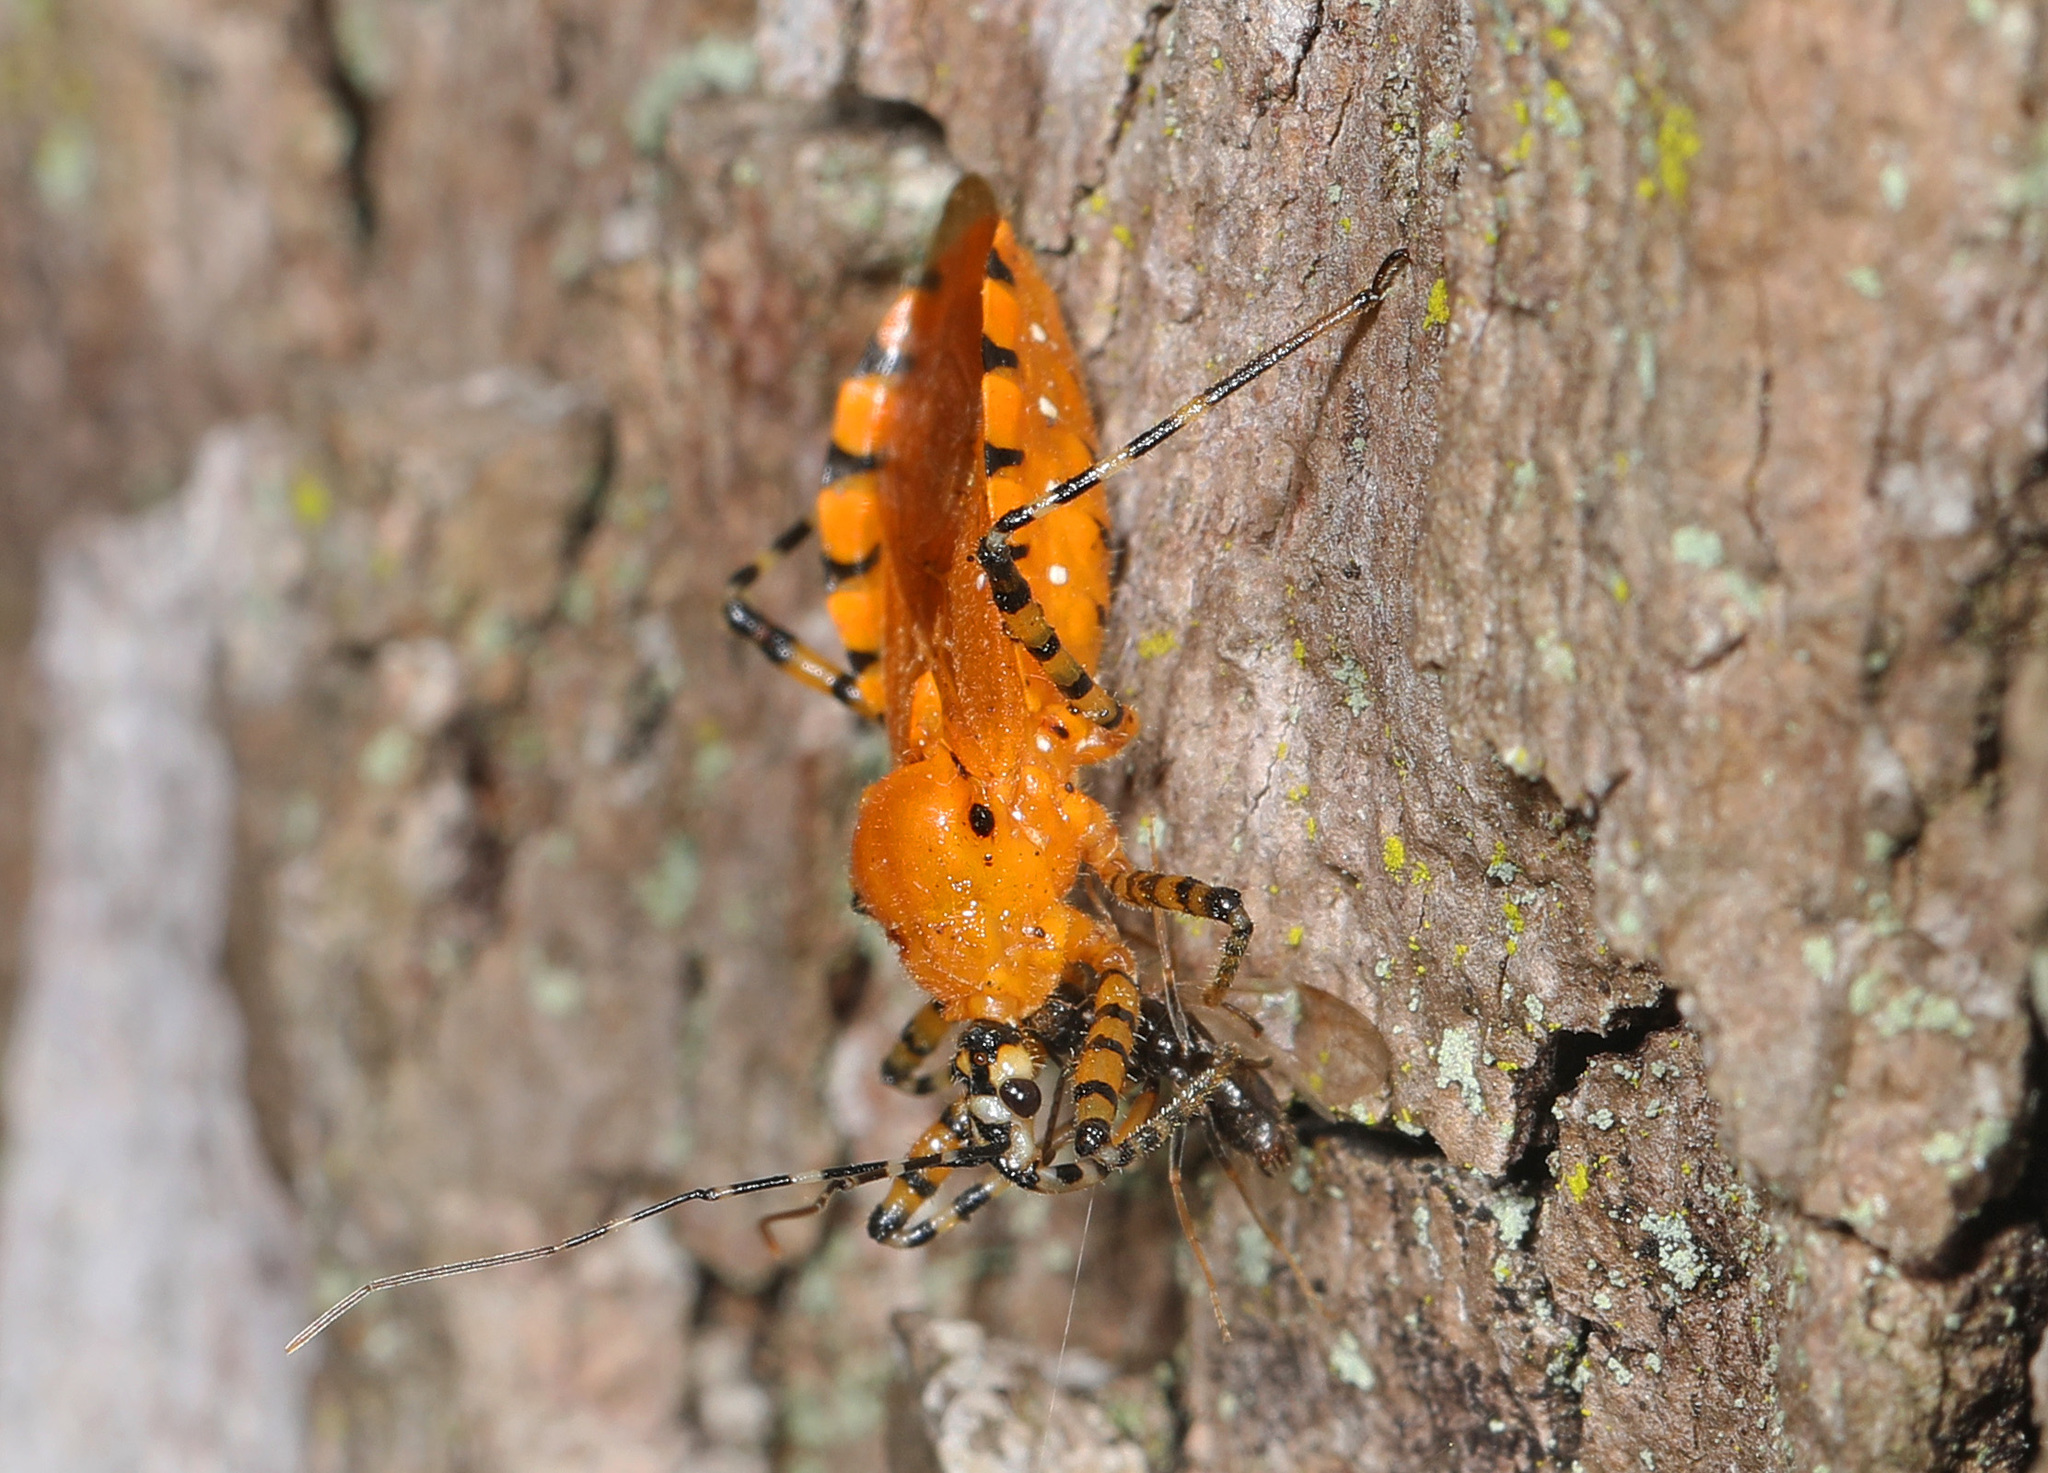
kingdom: Animalia
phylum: Arthropoda
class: Insecta
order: Hemiptera
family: Reduviidae
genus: Pselliopus
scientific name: Pselliopus barberi
